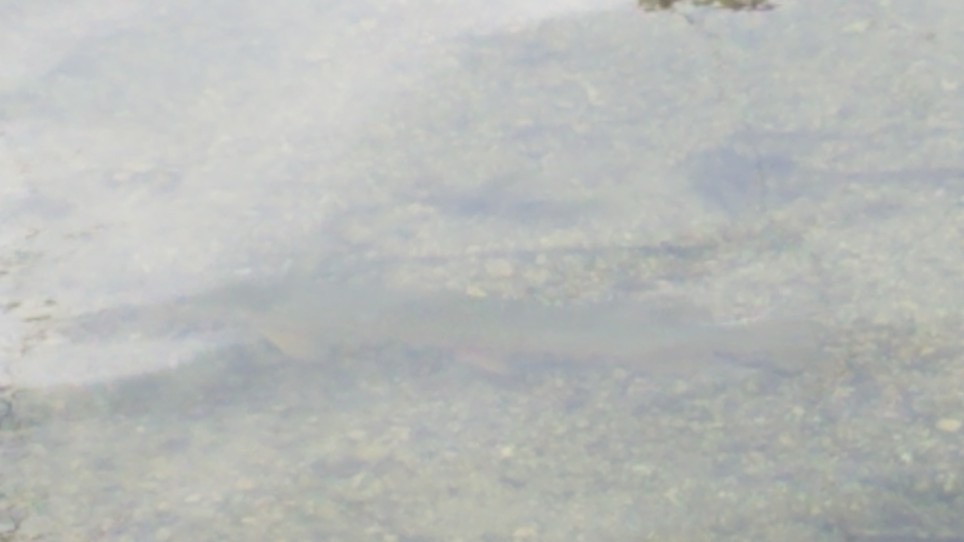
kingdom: Animalia
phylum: Chordata
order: Esociformes
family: Esocidae
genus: Esox
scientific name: Esox lucius
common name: Northern pike
